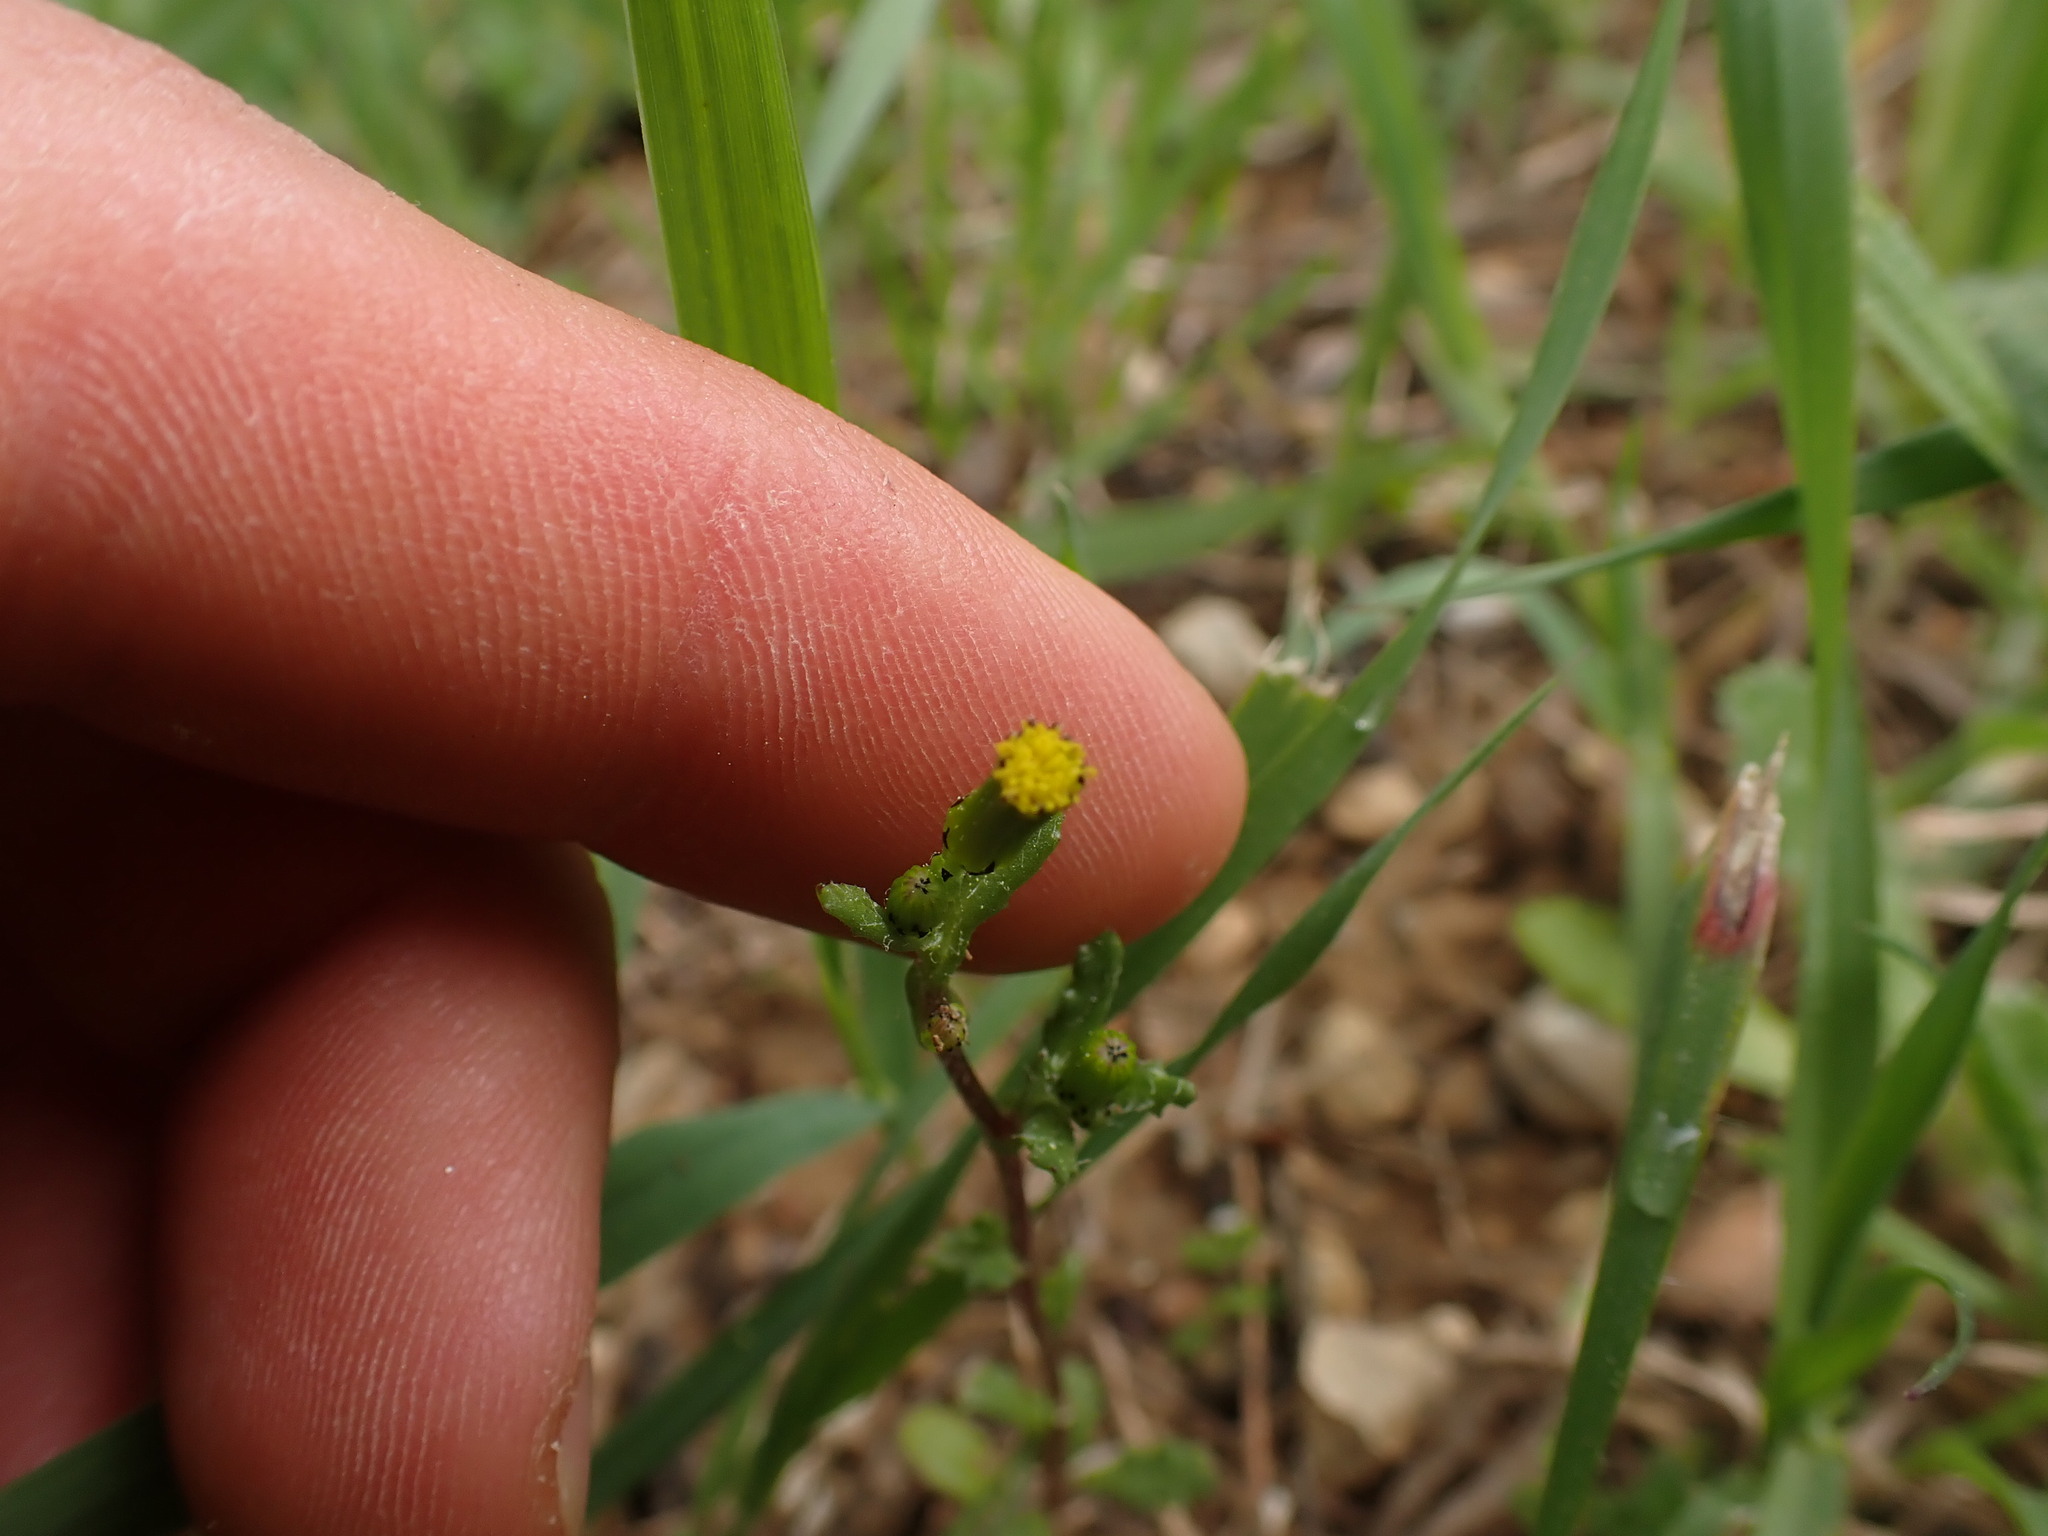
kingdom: Plantae
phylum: Tracheophyta
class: Magnoliopsida
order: Asterales
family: Asteraceae
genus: Senecio
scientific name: Senecio vulgaris
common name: Old-man-in-the-spring
